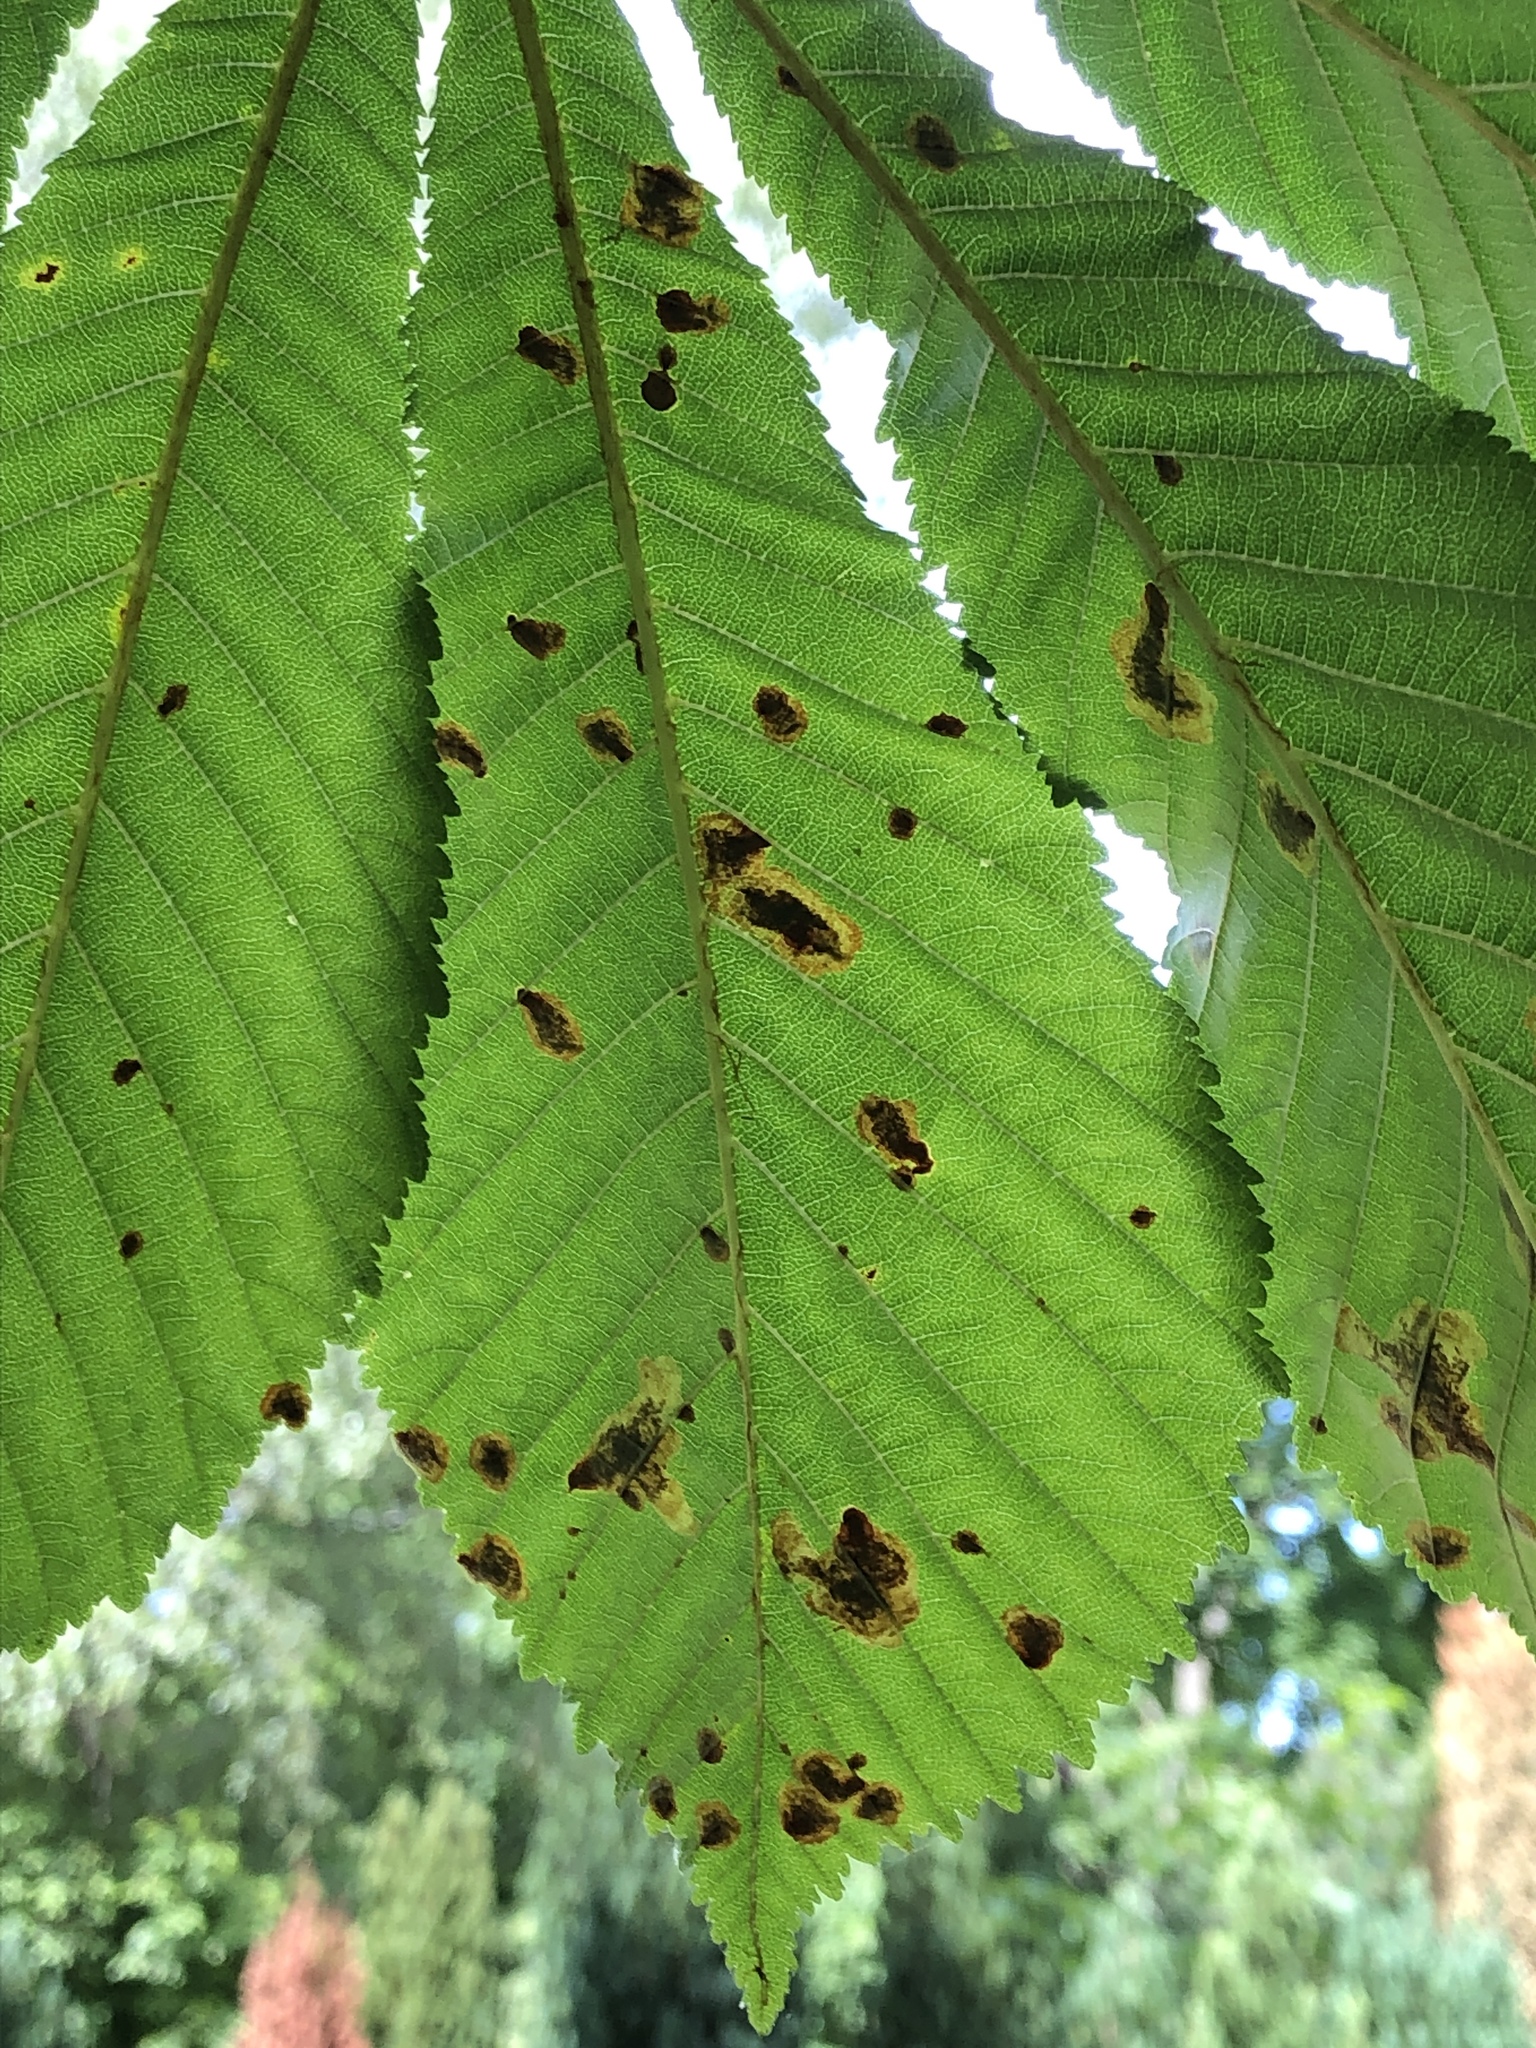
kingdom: Animalia
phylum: Arthropoda
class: Insecta
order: Lepidoptera
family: Gracillariidae
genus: Cameraria
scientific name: Cameraria ohridella
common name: Horse-chestnut leaf-miner
